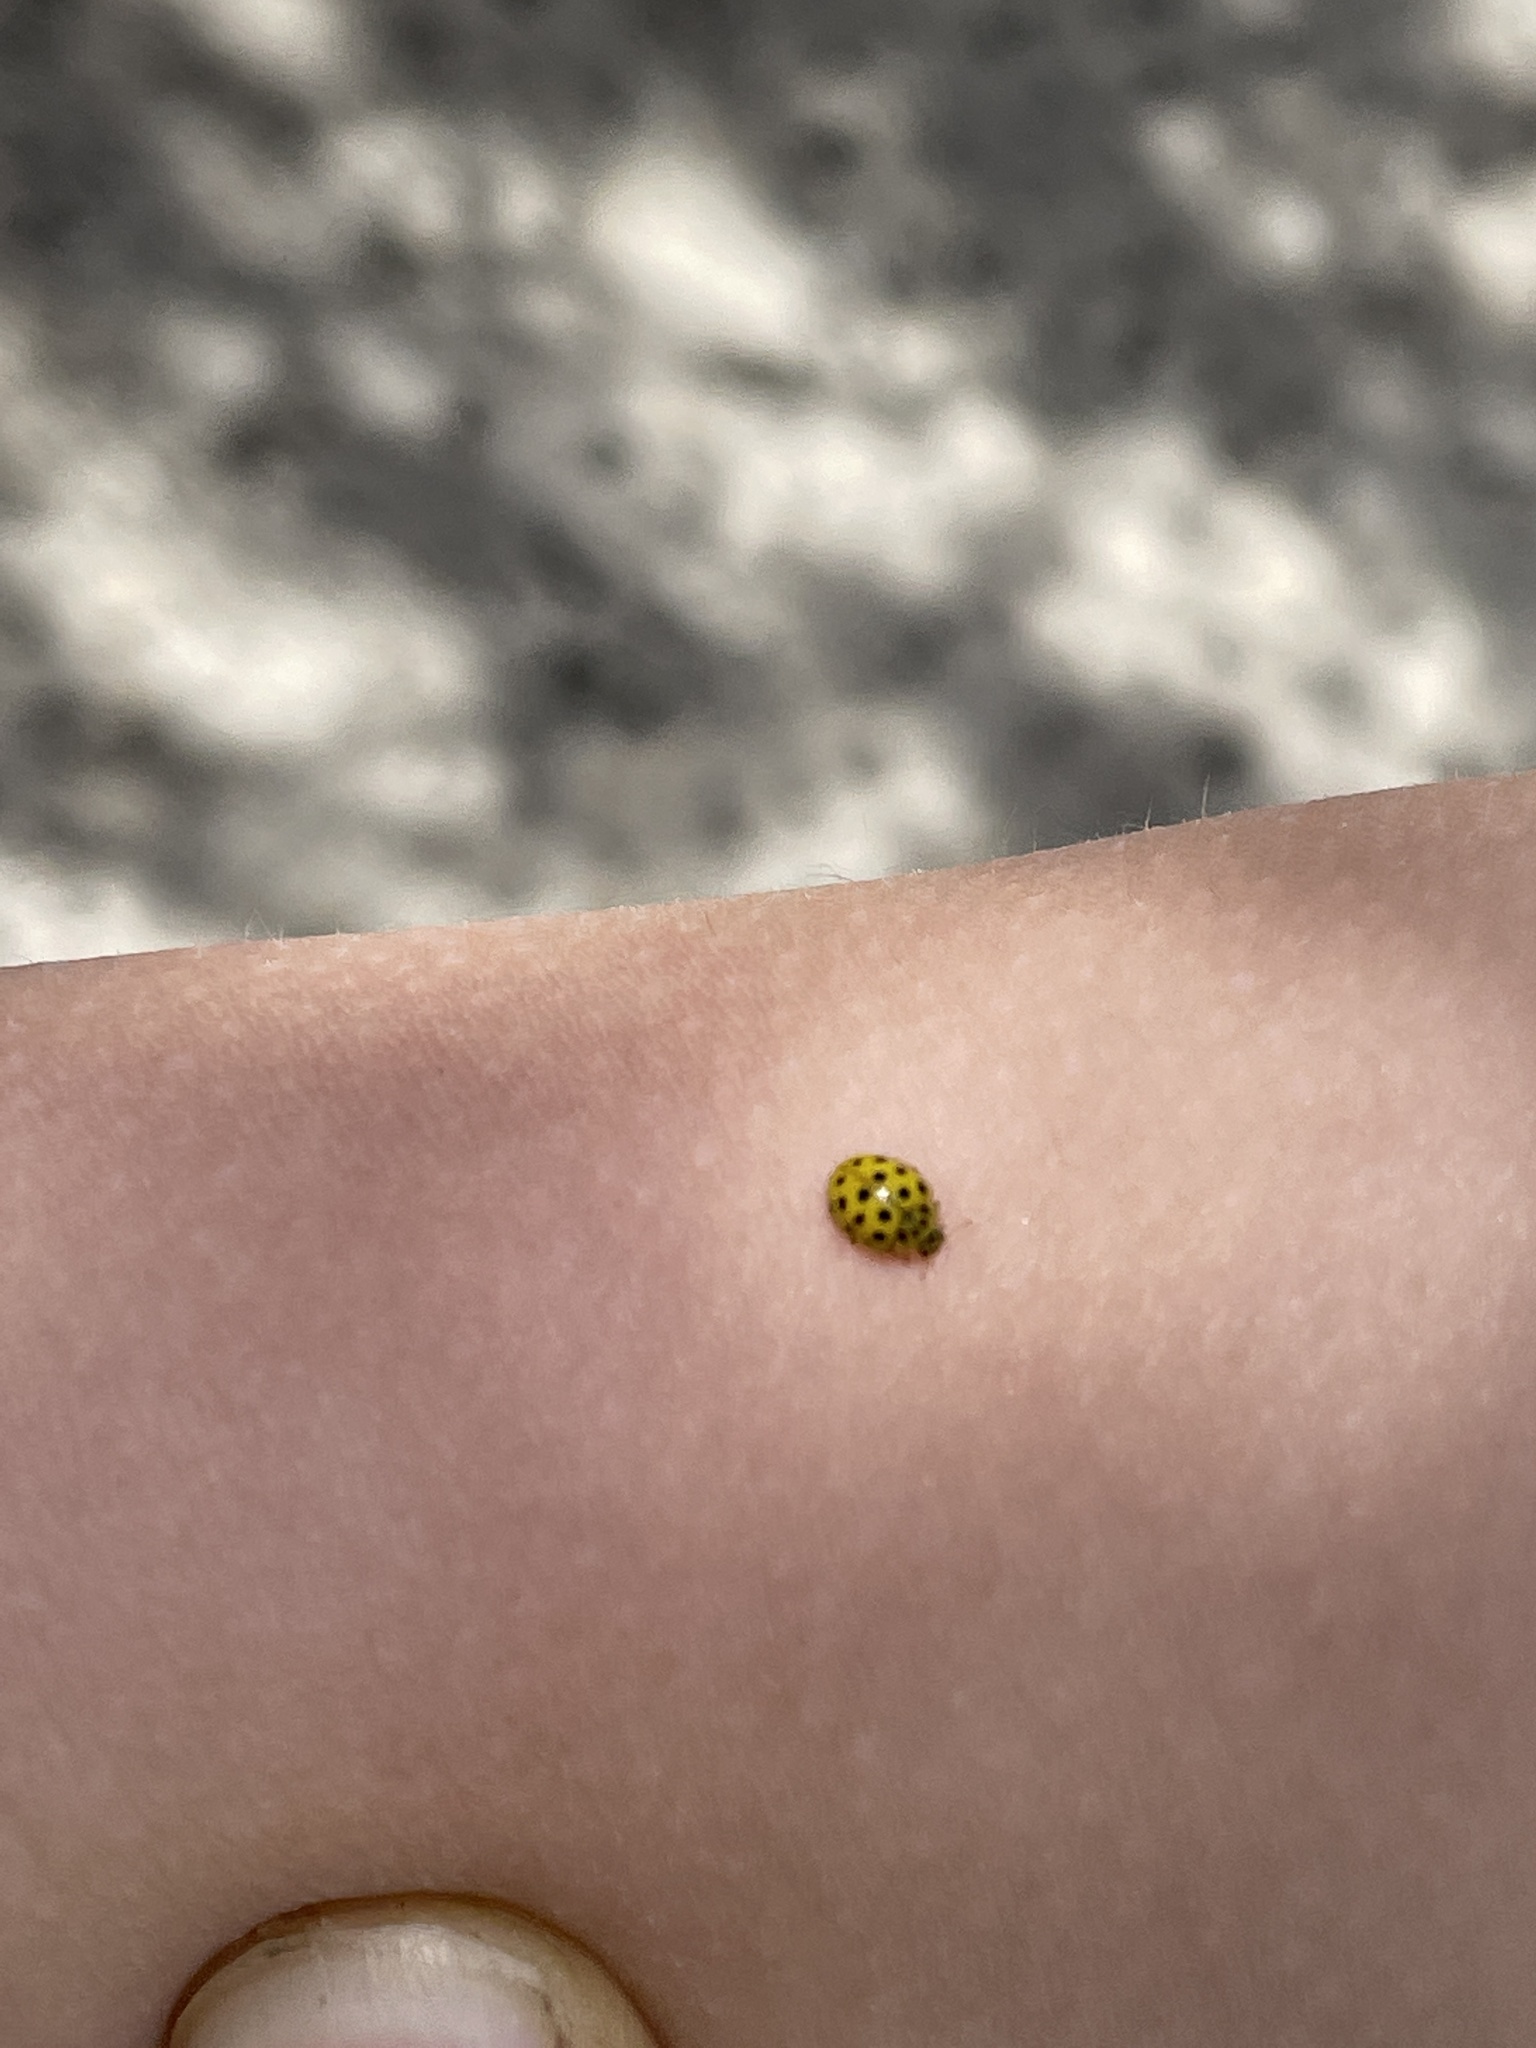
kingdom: Animalia
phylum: Arthropoda
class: Insecta
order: Coleoptera
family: Coccinellidae
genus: Psyllobora
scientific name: Psyllobora vigintiduopunctata
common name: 22-spot ladybird
